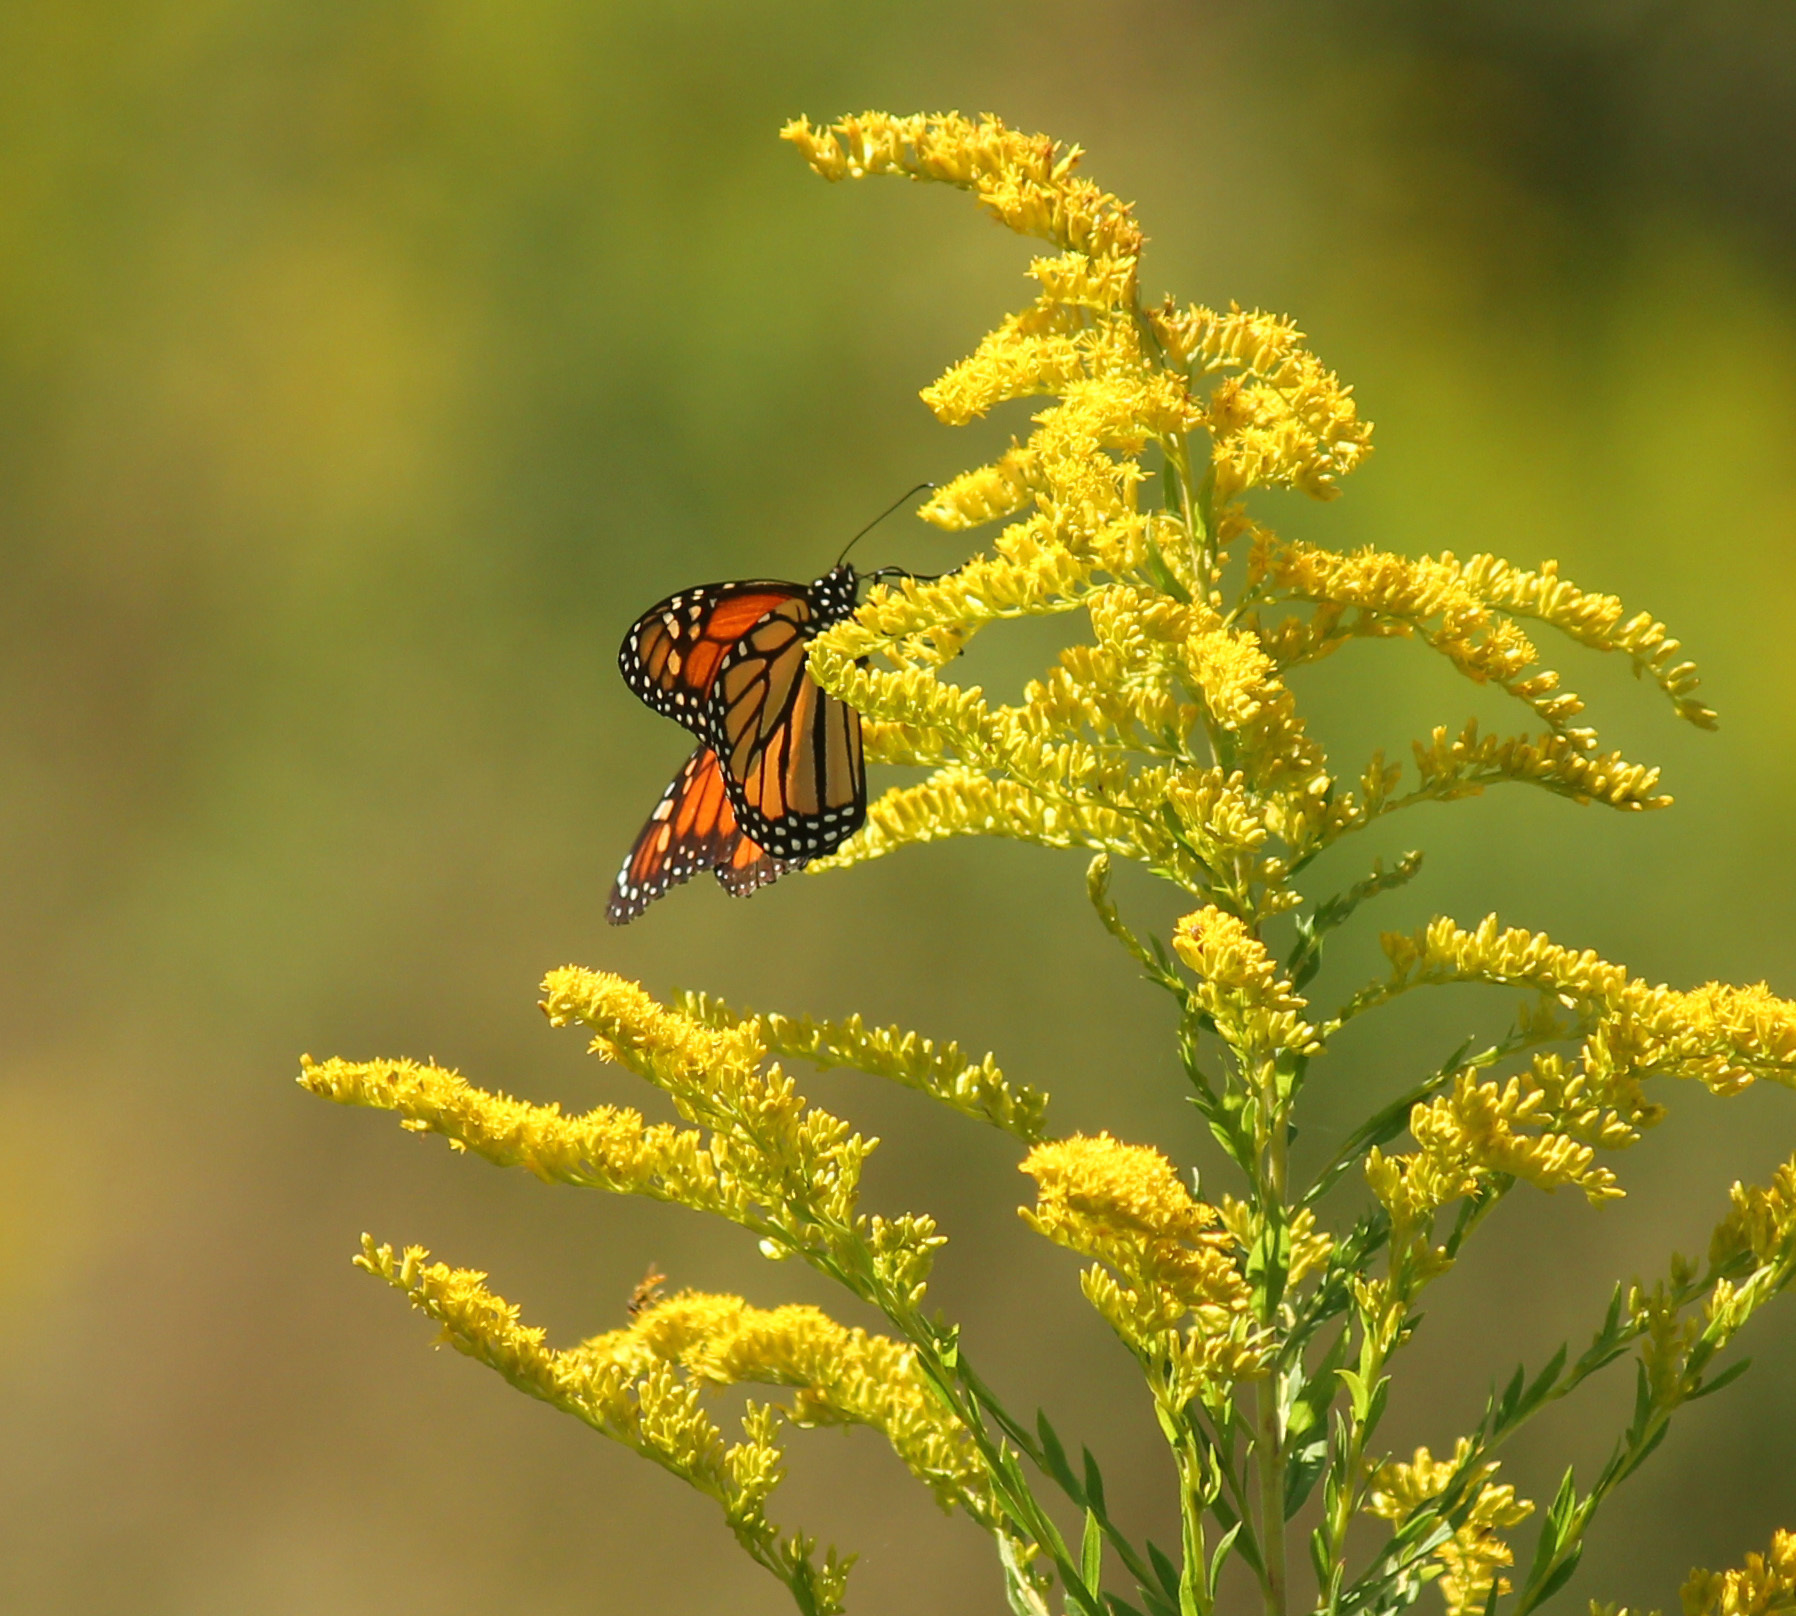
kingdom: Animalia
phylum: Arthropoda
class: Insecta
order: Lepidoptera
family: Nymphalidae
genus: Danaus
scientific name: Danaus plexippus
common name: Monarch
